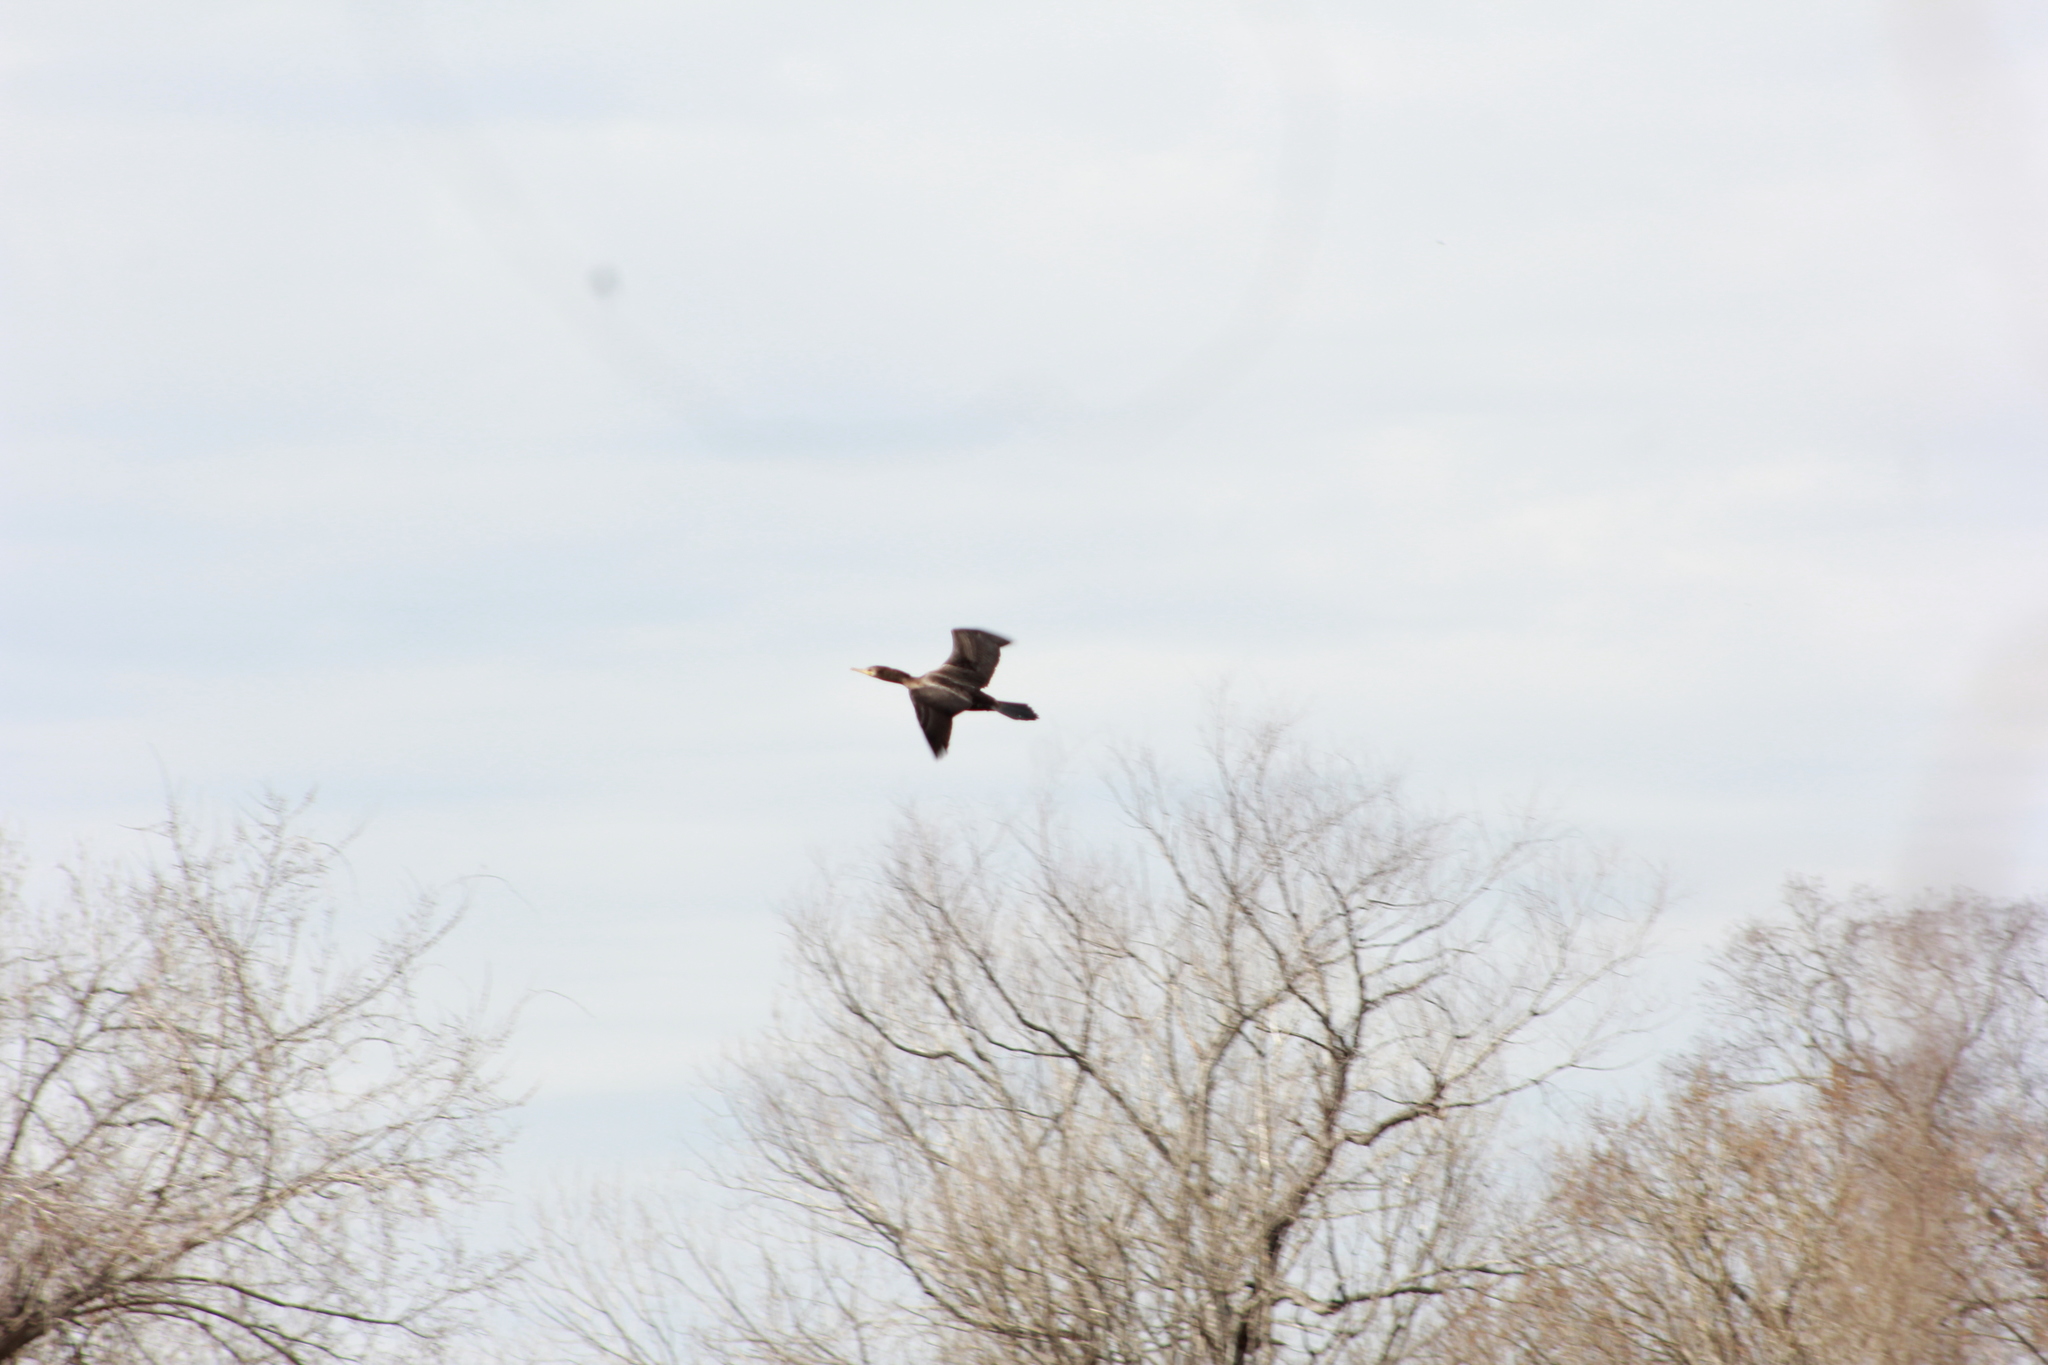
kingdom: Animalia
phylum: Chordata
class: Aves
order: Suliformes
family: Phalacrocoracidae
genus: Phalacrocorax
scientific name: Phalacrocorax auritus
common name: Double-crested cormorant
